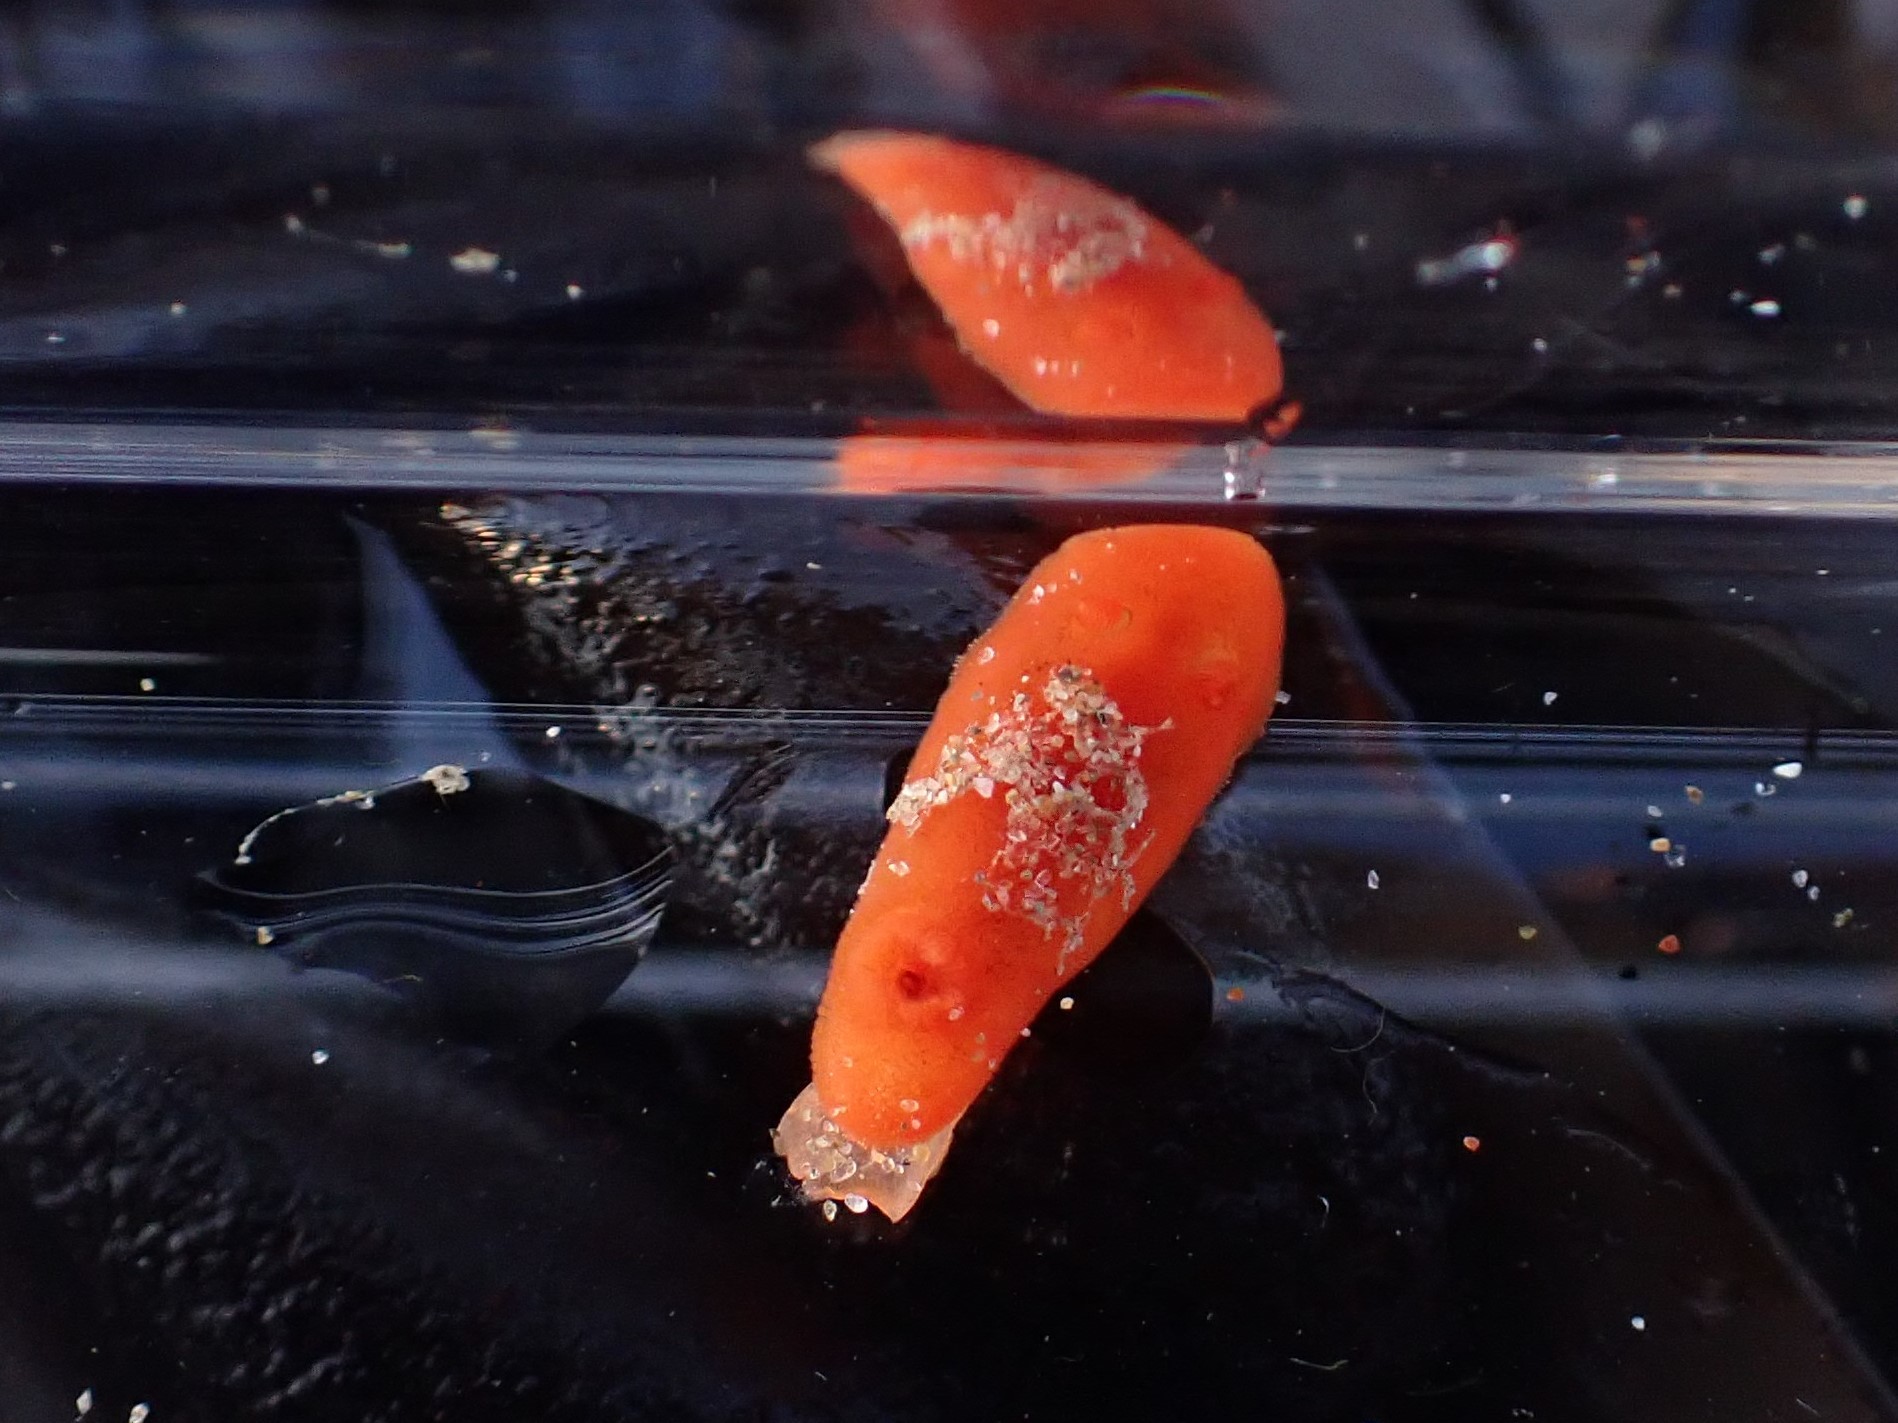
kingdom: Animalia
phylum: Mollusca
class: Gastropoda
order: Nudibranchia
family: Discodorididae
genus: Rostanga
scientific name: Rostanga pulchra
